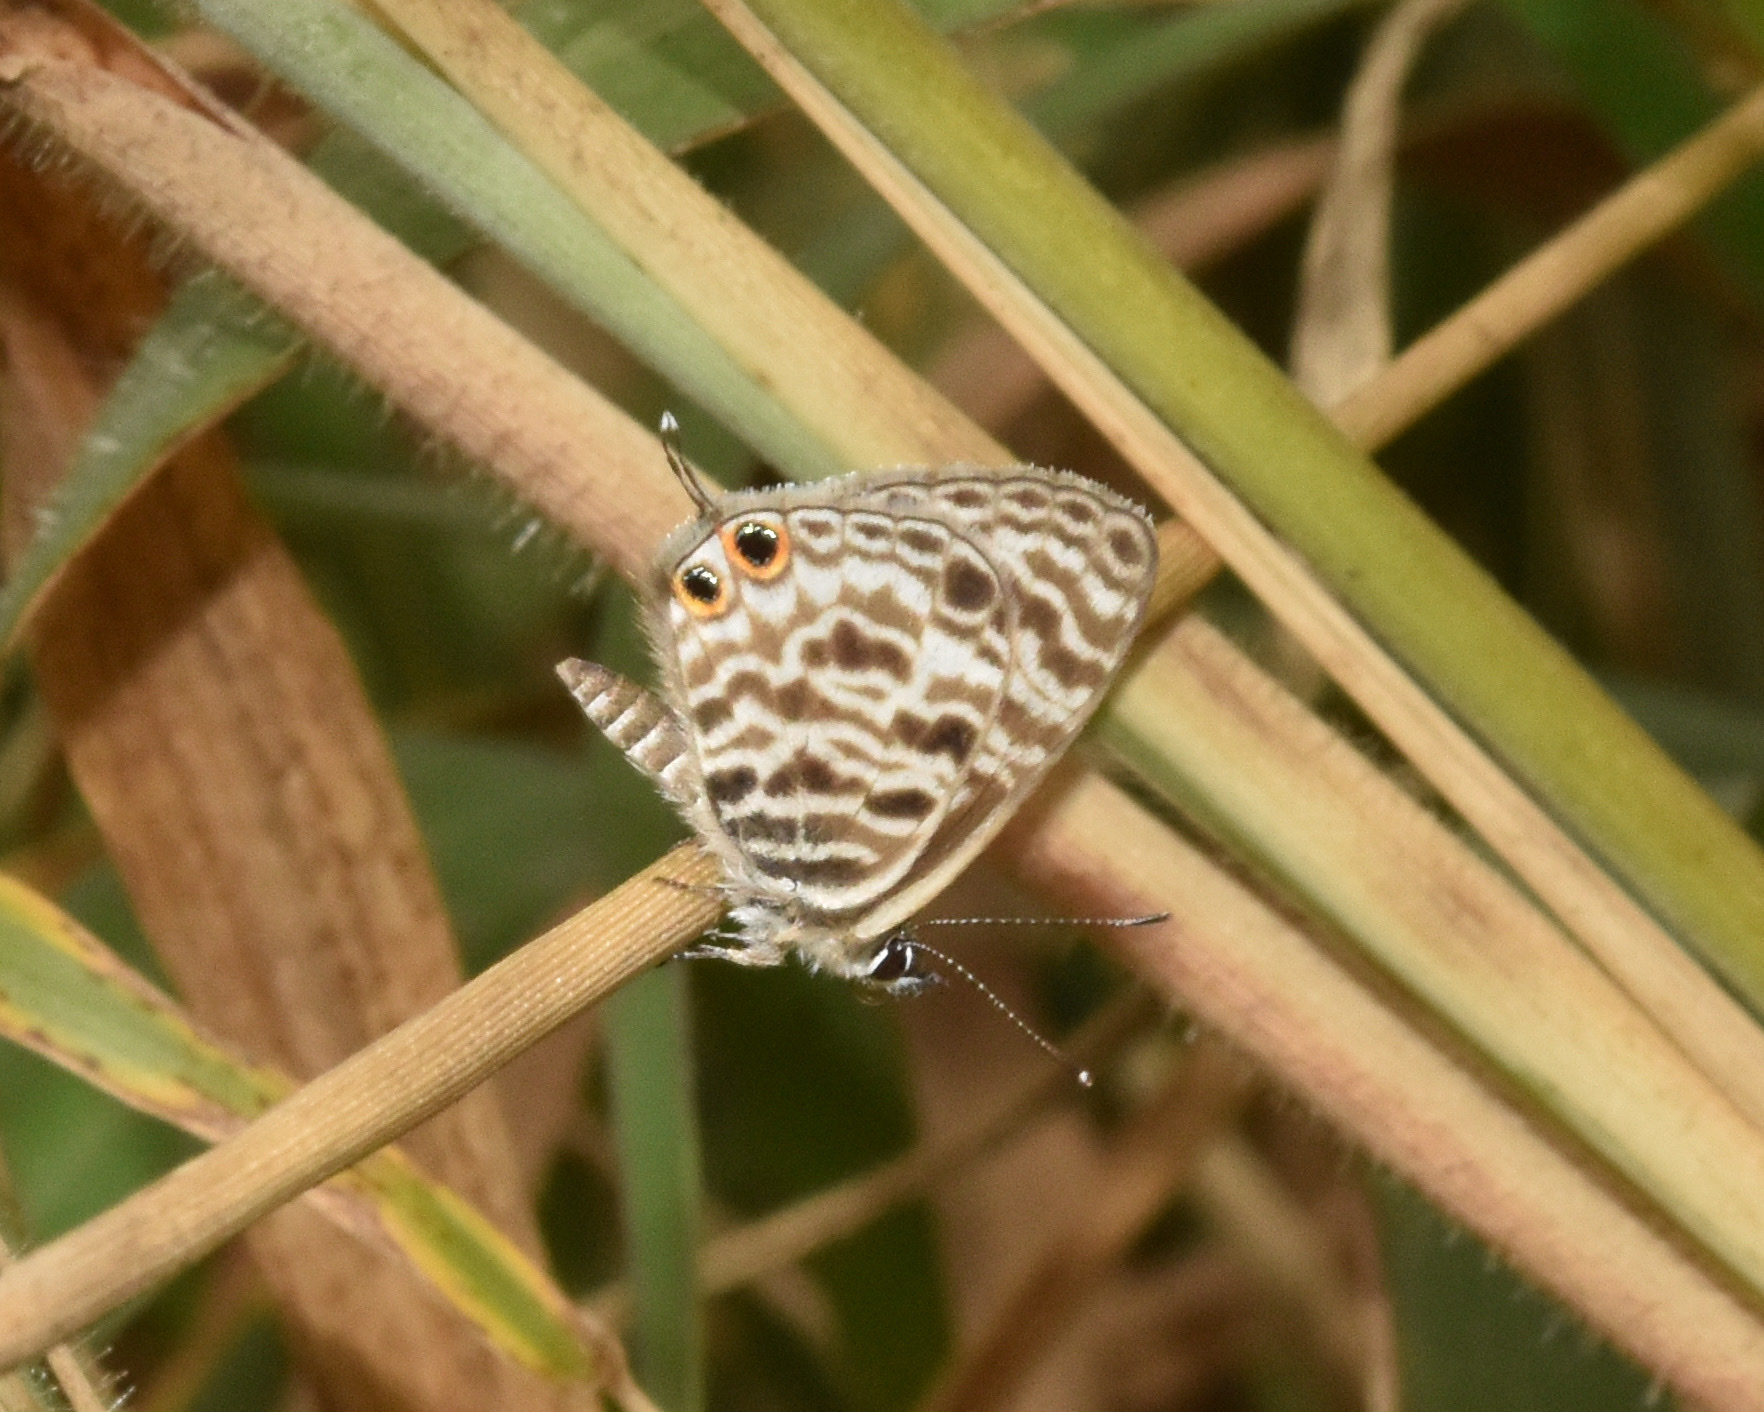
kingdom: Animalia
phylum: Arthropoda
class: Insecta
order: Lepidoptera
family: Lycaenidae
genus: Leptotes
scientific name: Leptotes
